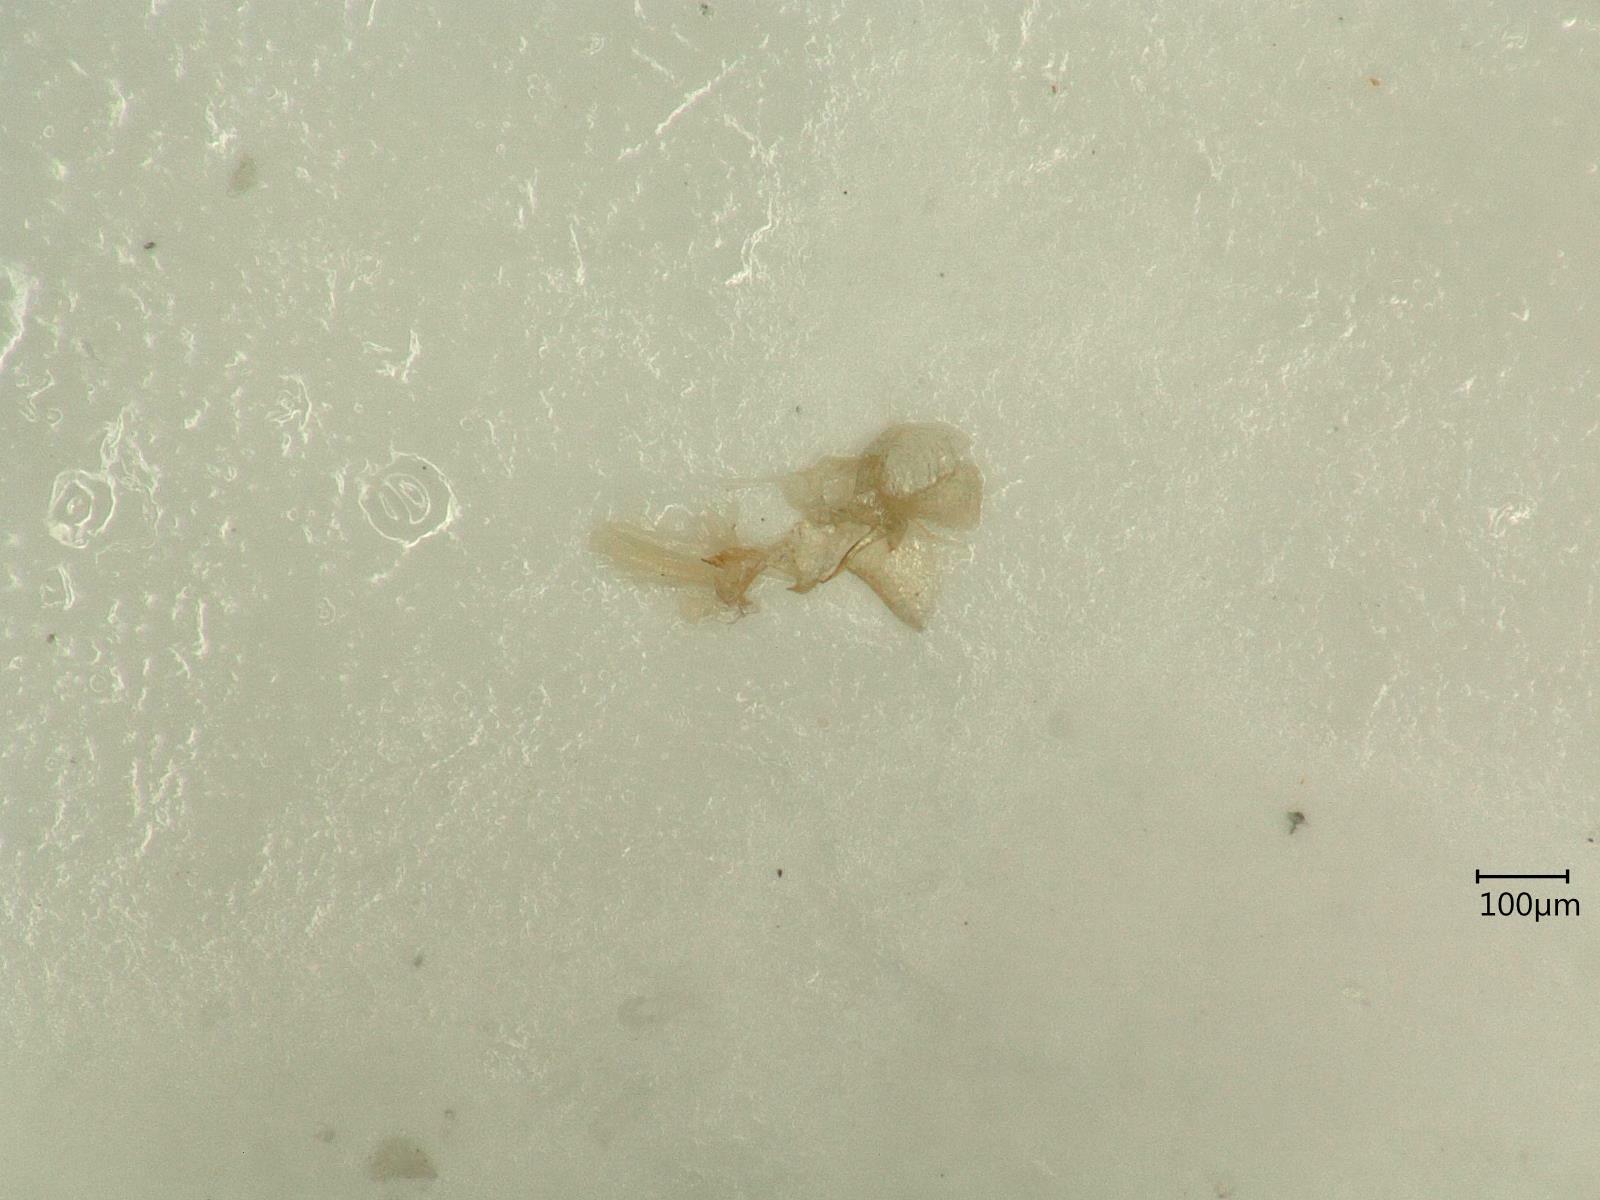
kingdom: Animalia
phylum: Arthropoda
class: Insecta
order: Hemiptera
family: Cicadellidae
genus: Hebata
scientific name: Hebata solani
